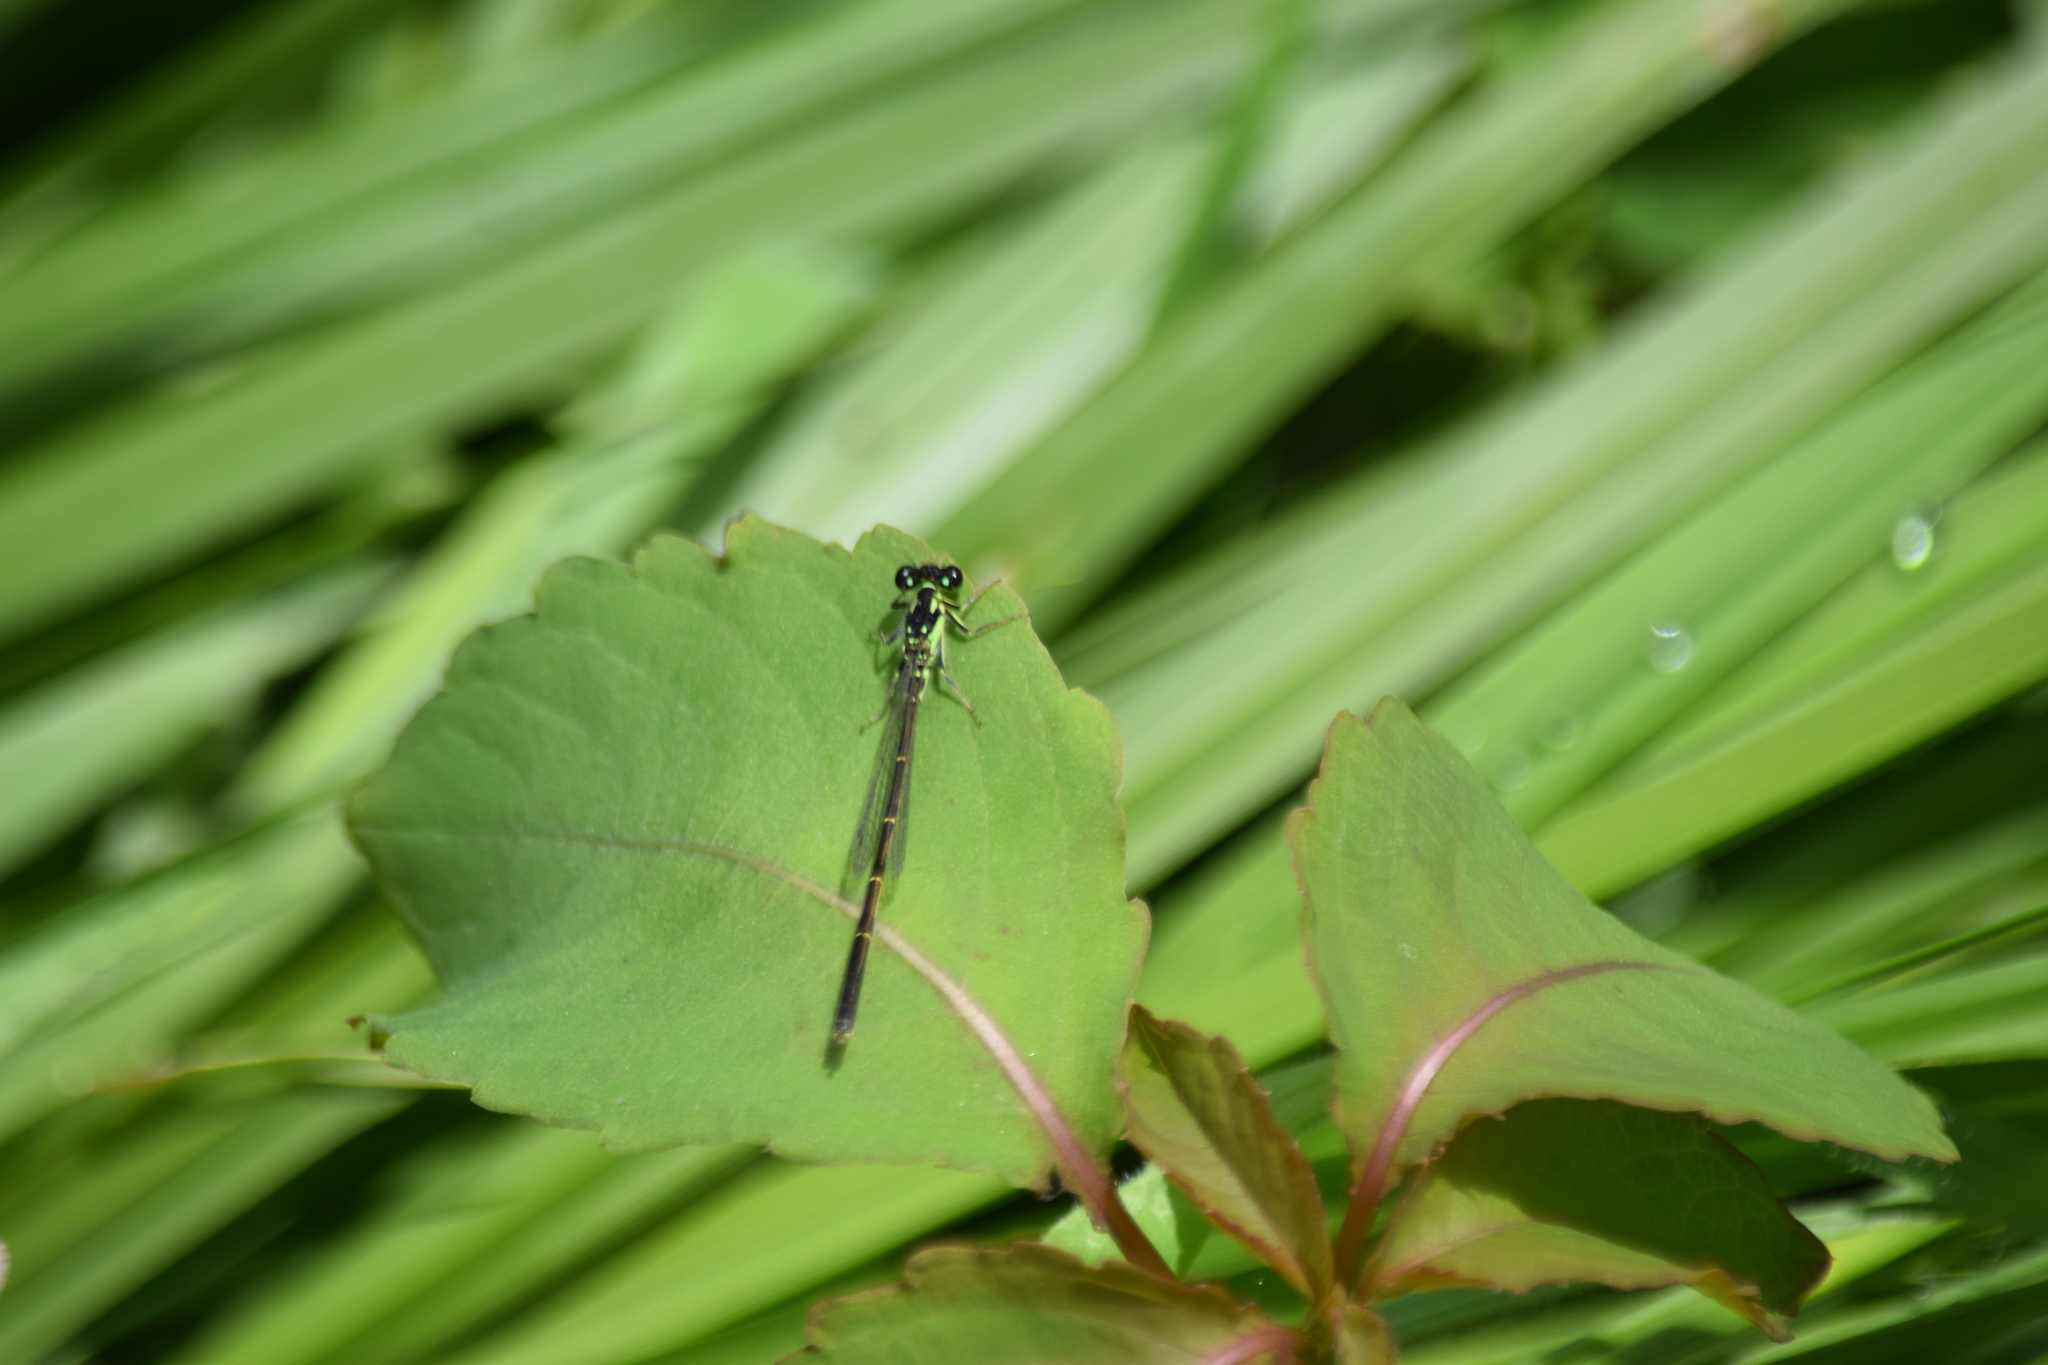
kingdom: Animalia
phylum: Arthropoda
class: Insecta
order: Odonata
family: Coenagrionidae
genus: Ischnura
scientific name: Ischnura posita
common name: Fragile forktail
